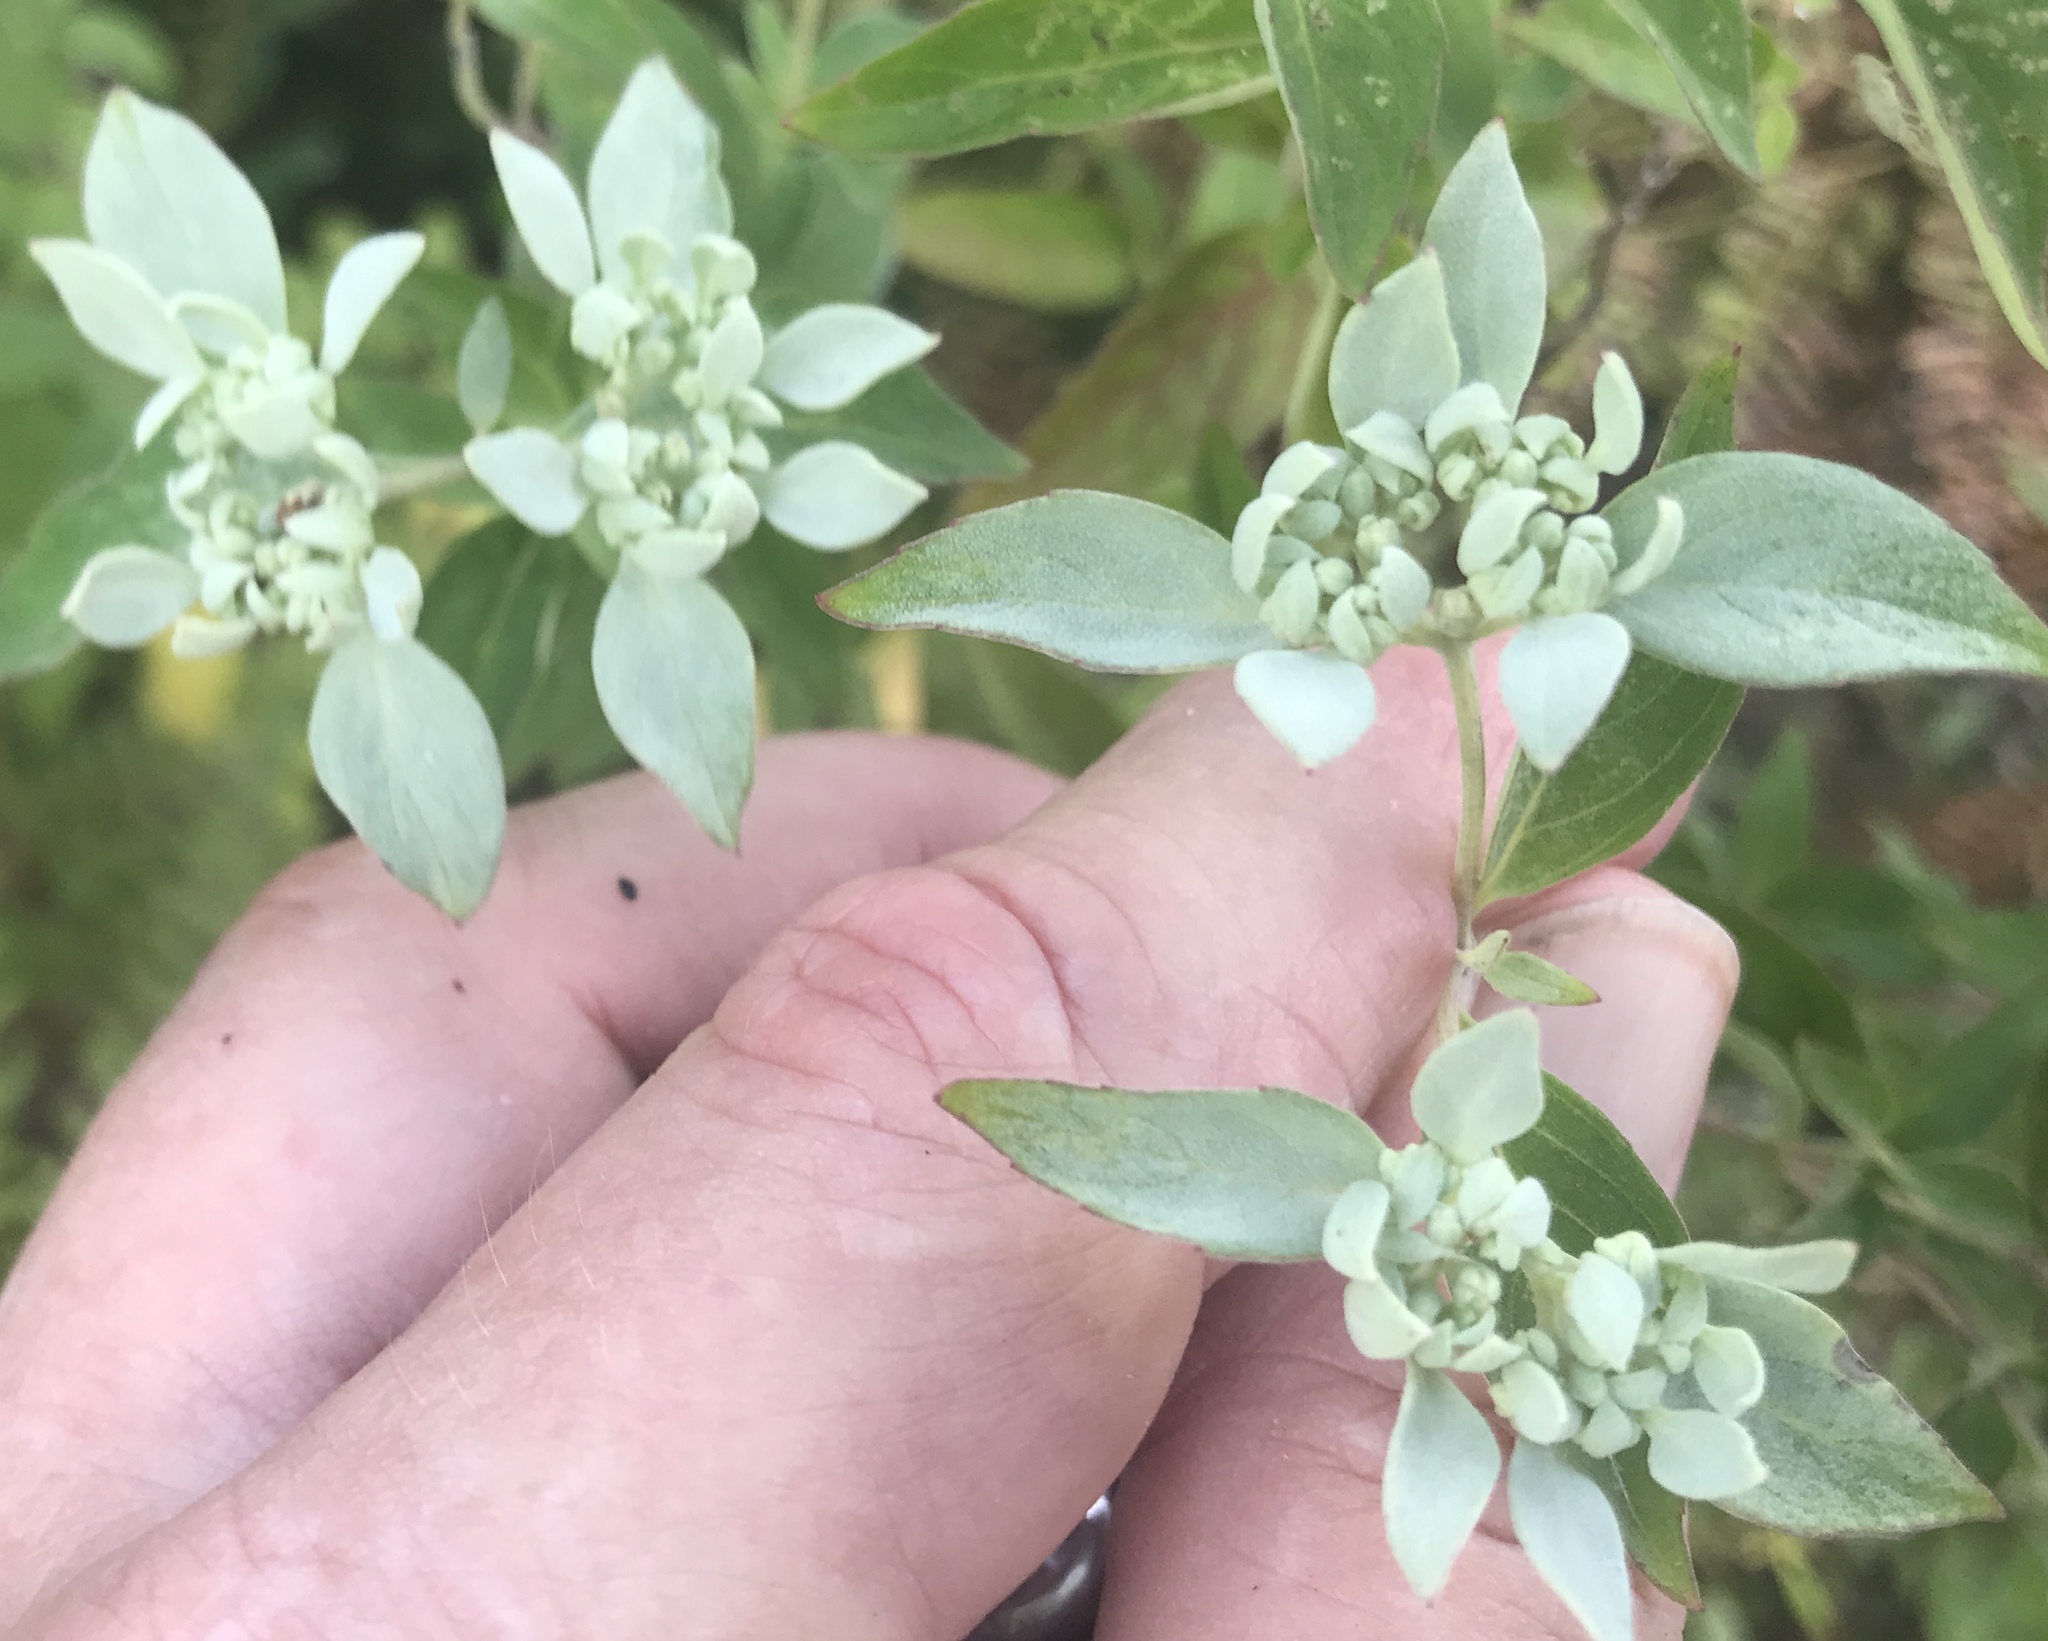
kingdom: Plantae
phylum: Tracheophyta
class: Magnoliopsida
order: Lamiales
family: Lamiaceae
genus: Pycnanthemum
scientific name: Pycnanthemum albescens
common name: White-leaf mountain-mint
